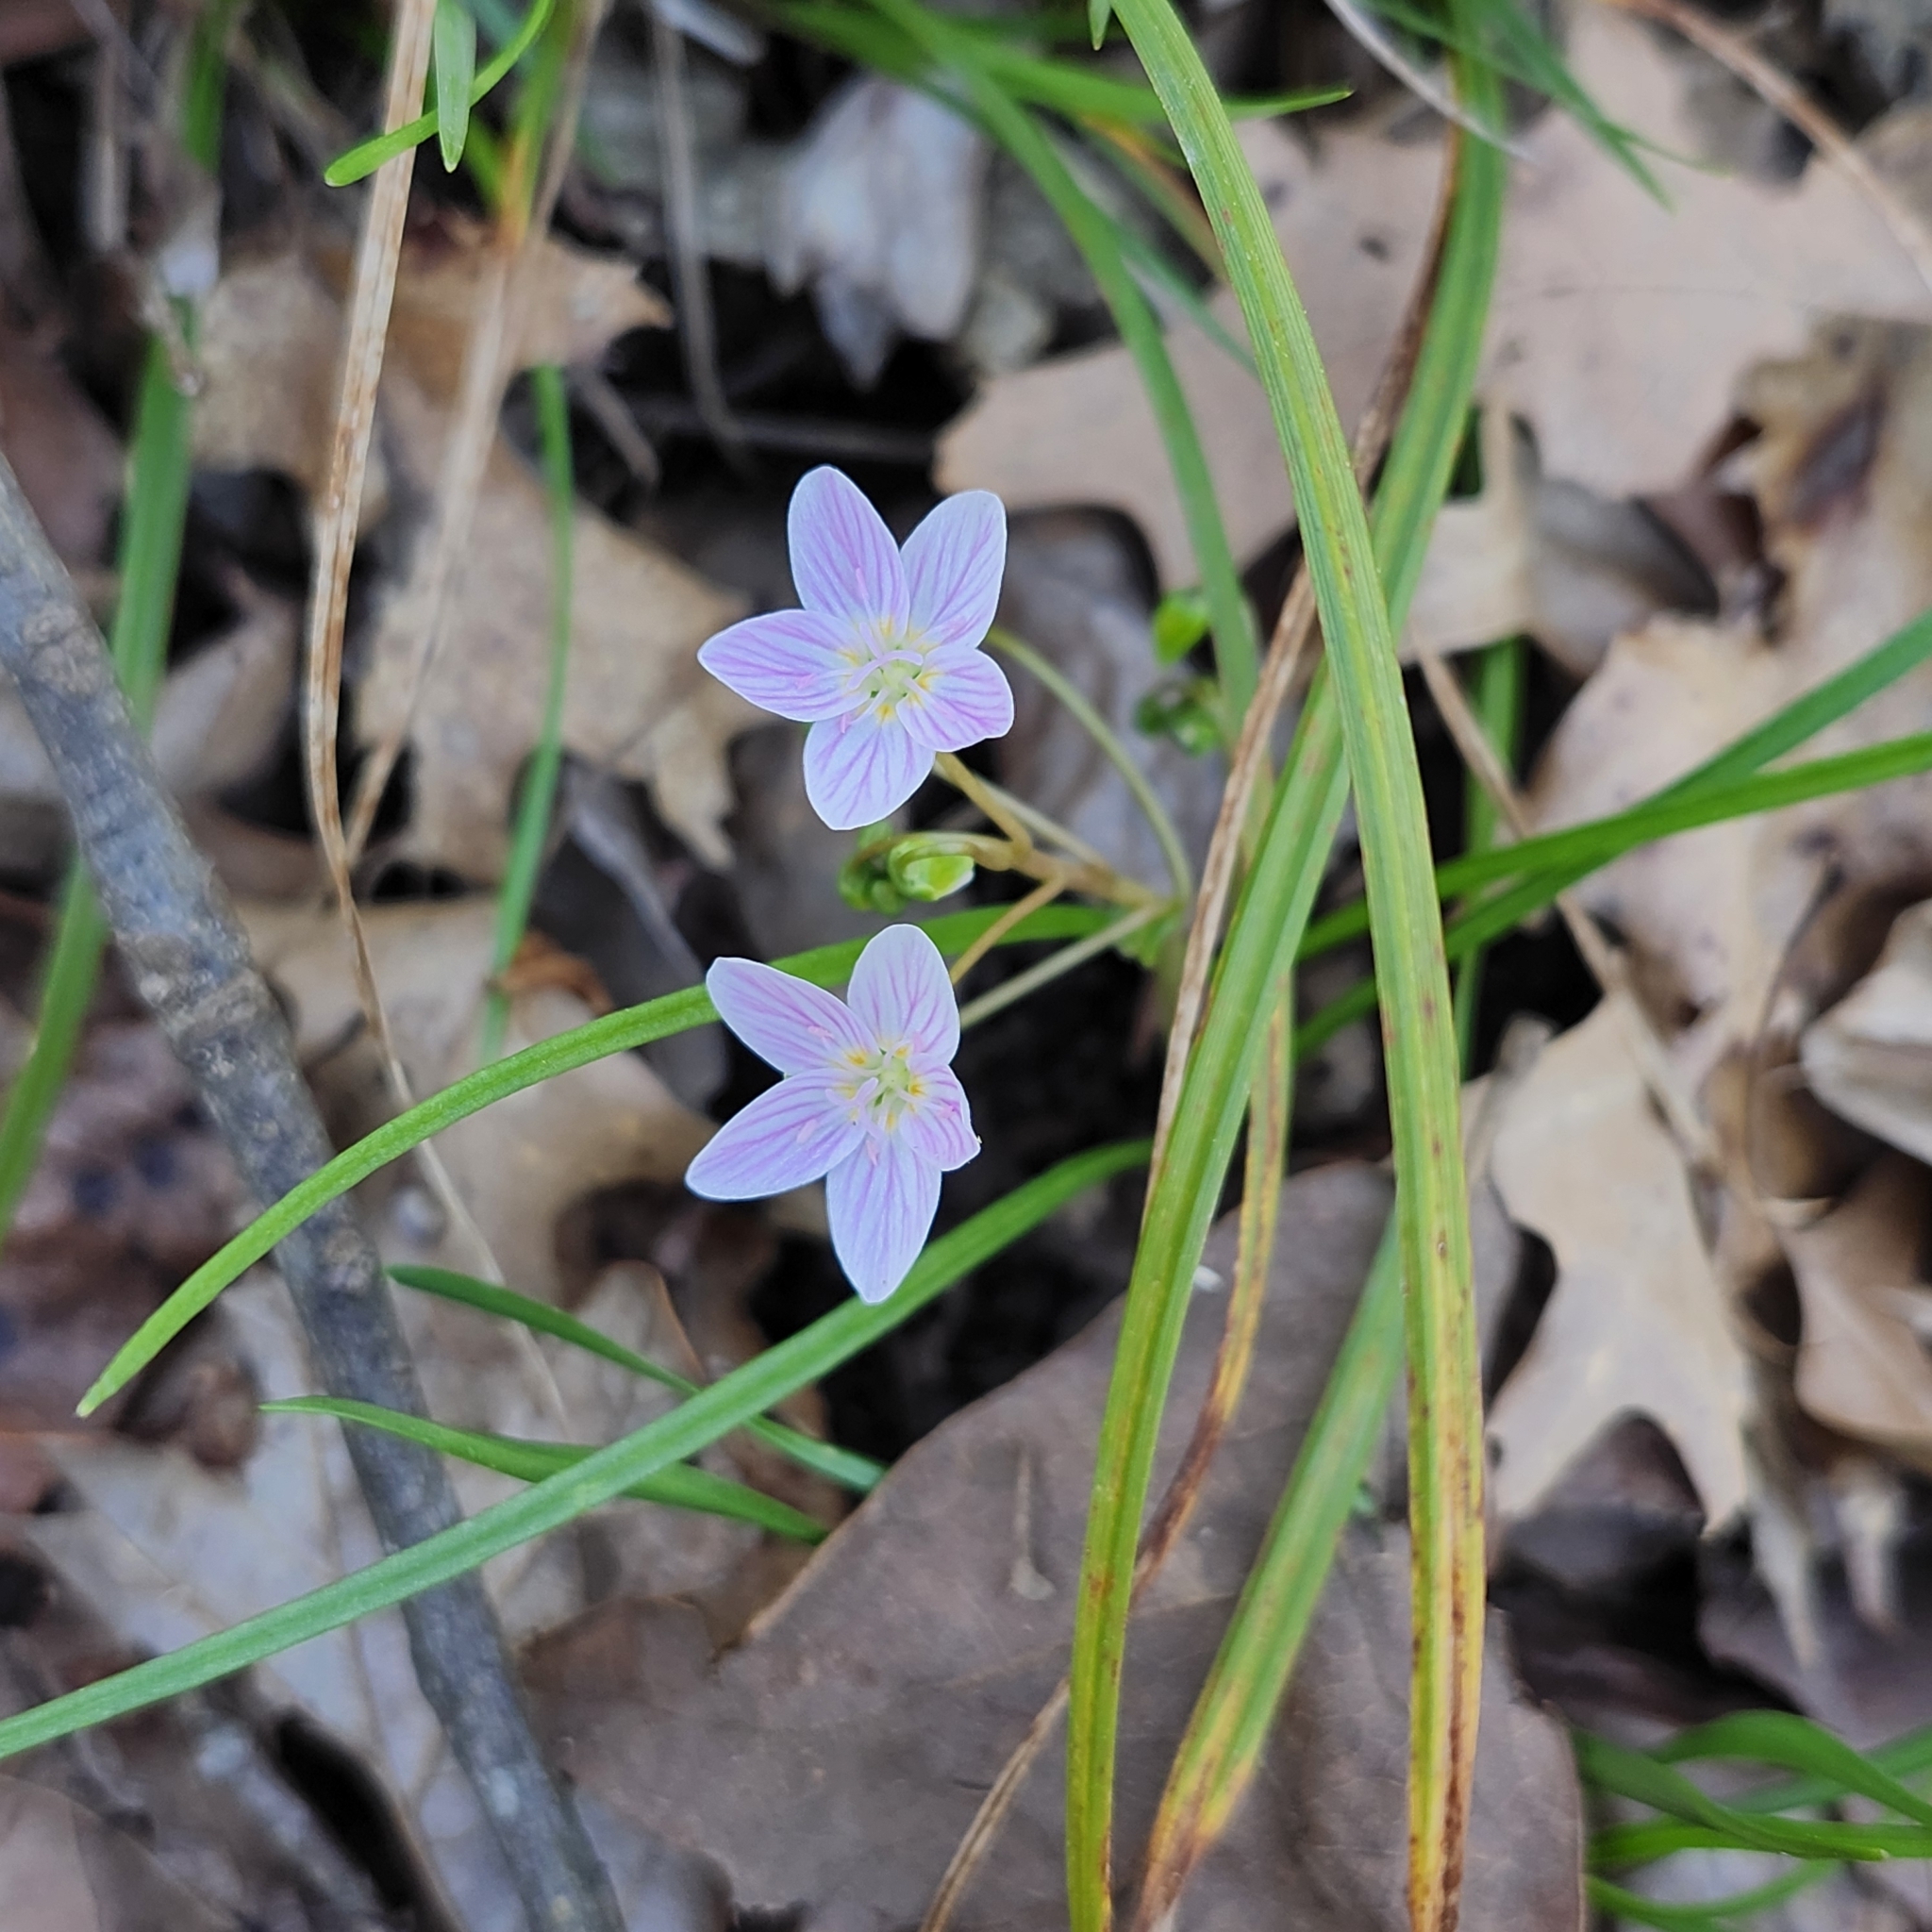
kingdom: Plantae
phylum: Tracheophyta
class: Magnoliopsida
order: Caryophyllales
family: Montiaceae
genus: Claytonia
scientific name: Claytonia virginica
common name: Virginia springbeauty
